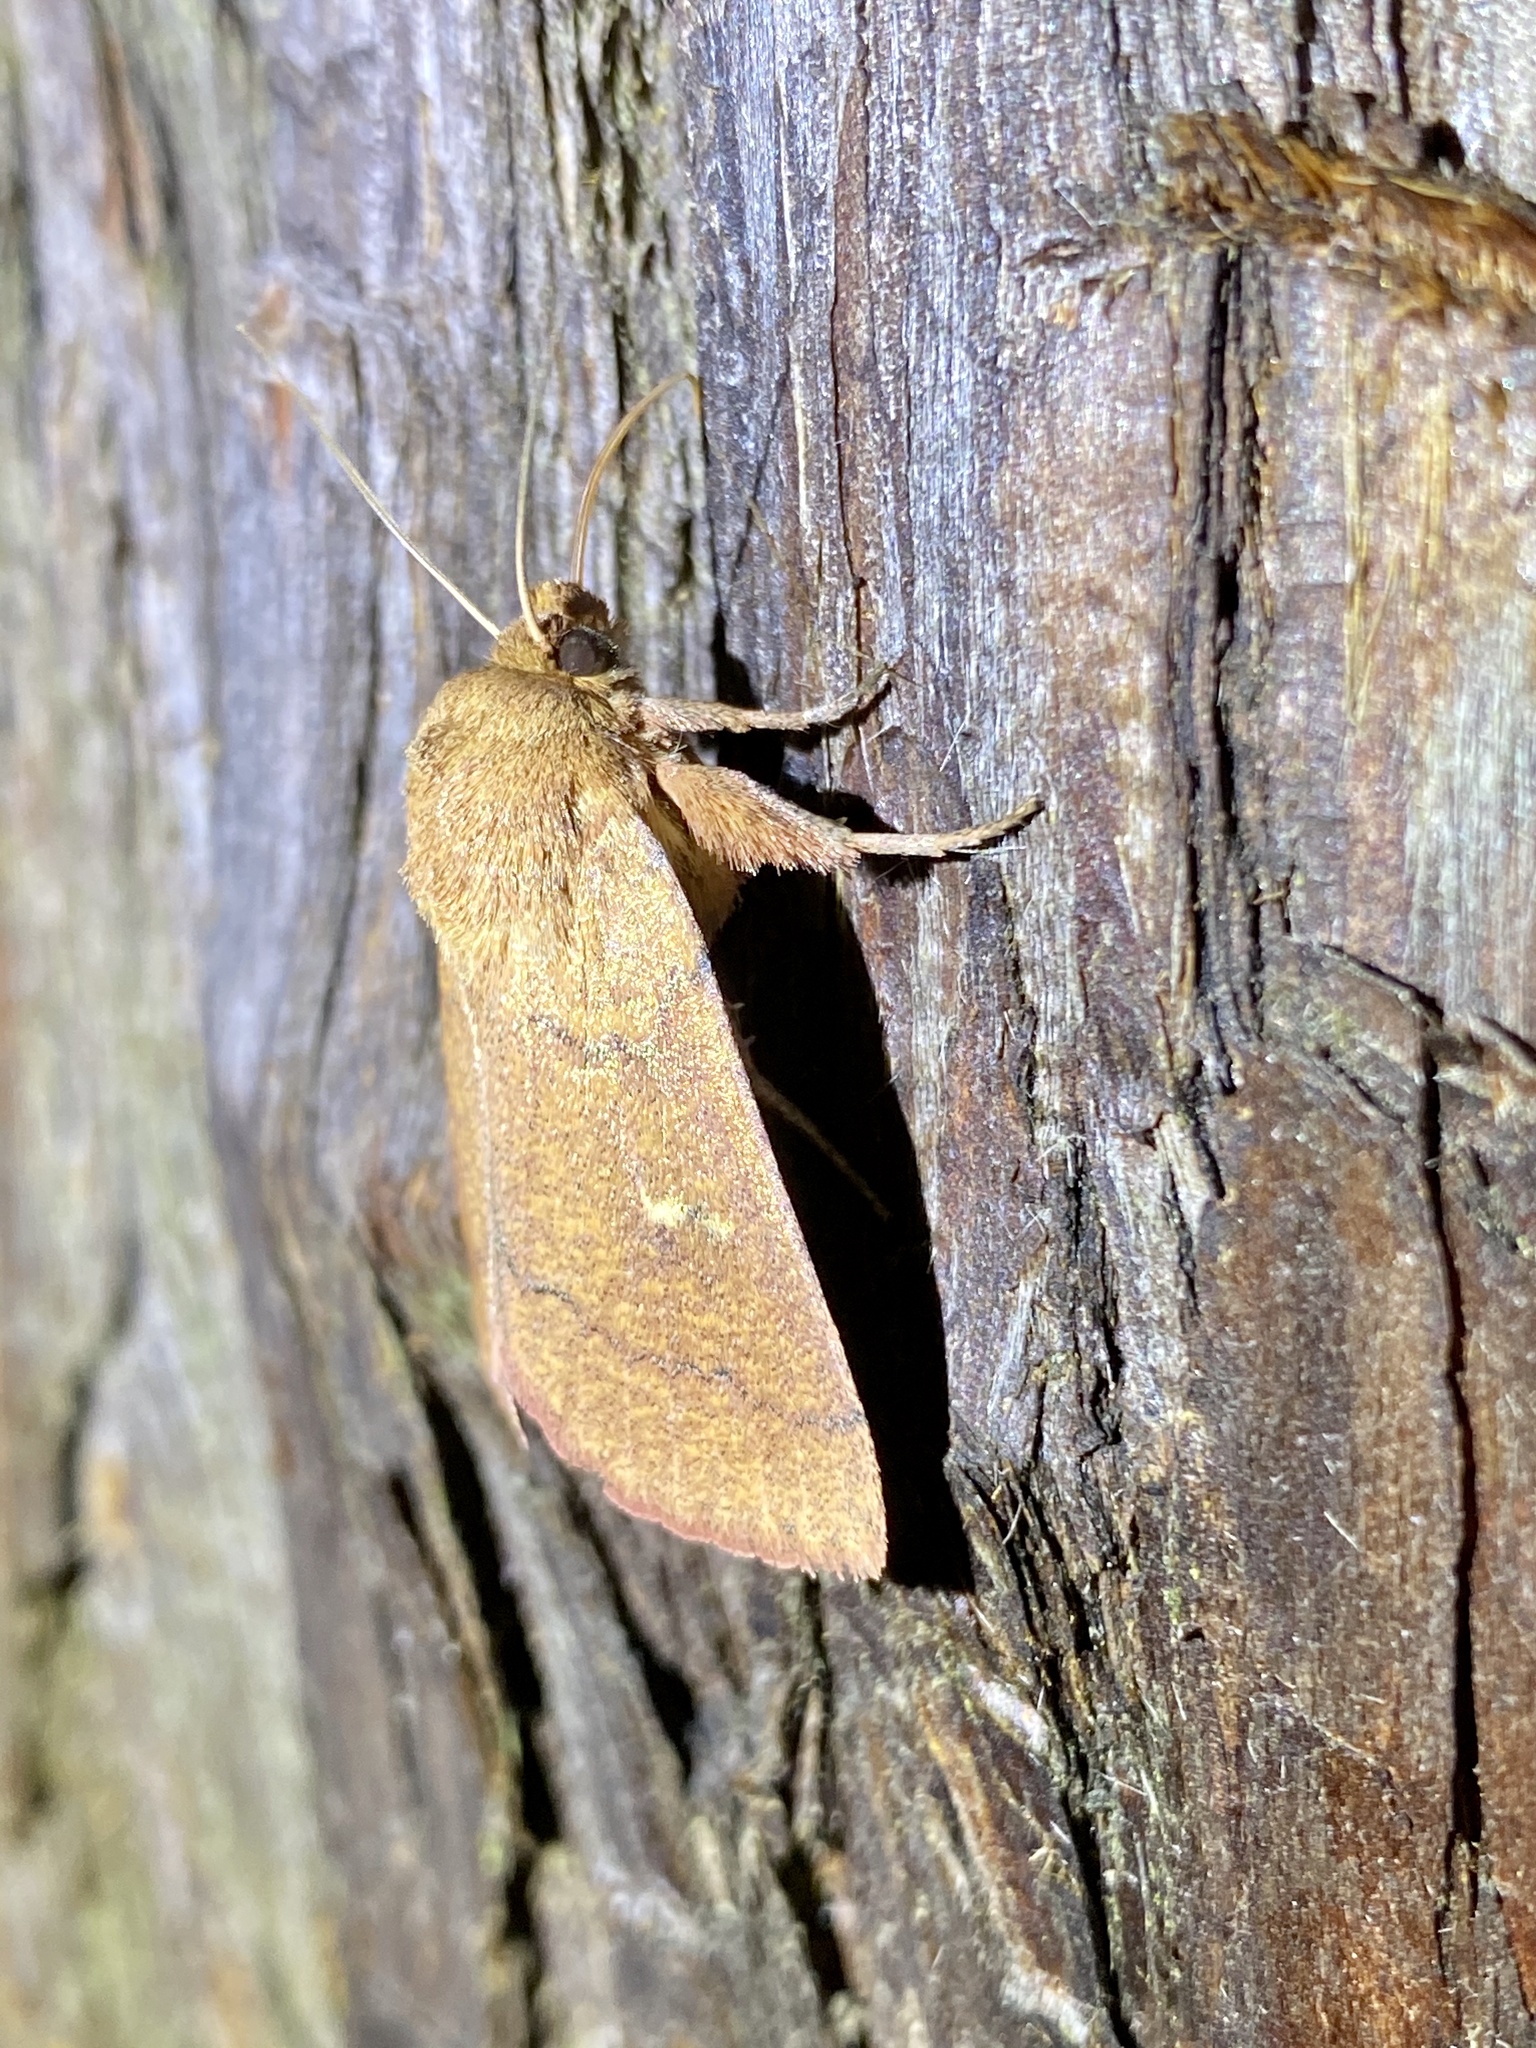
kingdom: Animalia
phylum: Arthropoda
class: Insecta
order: Lepidoptera
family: Noctuidae
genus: Mythimna
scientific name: Mythimna turca
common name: Double line
